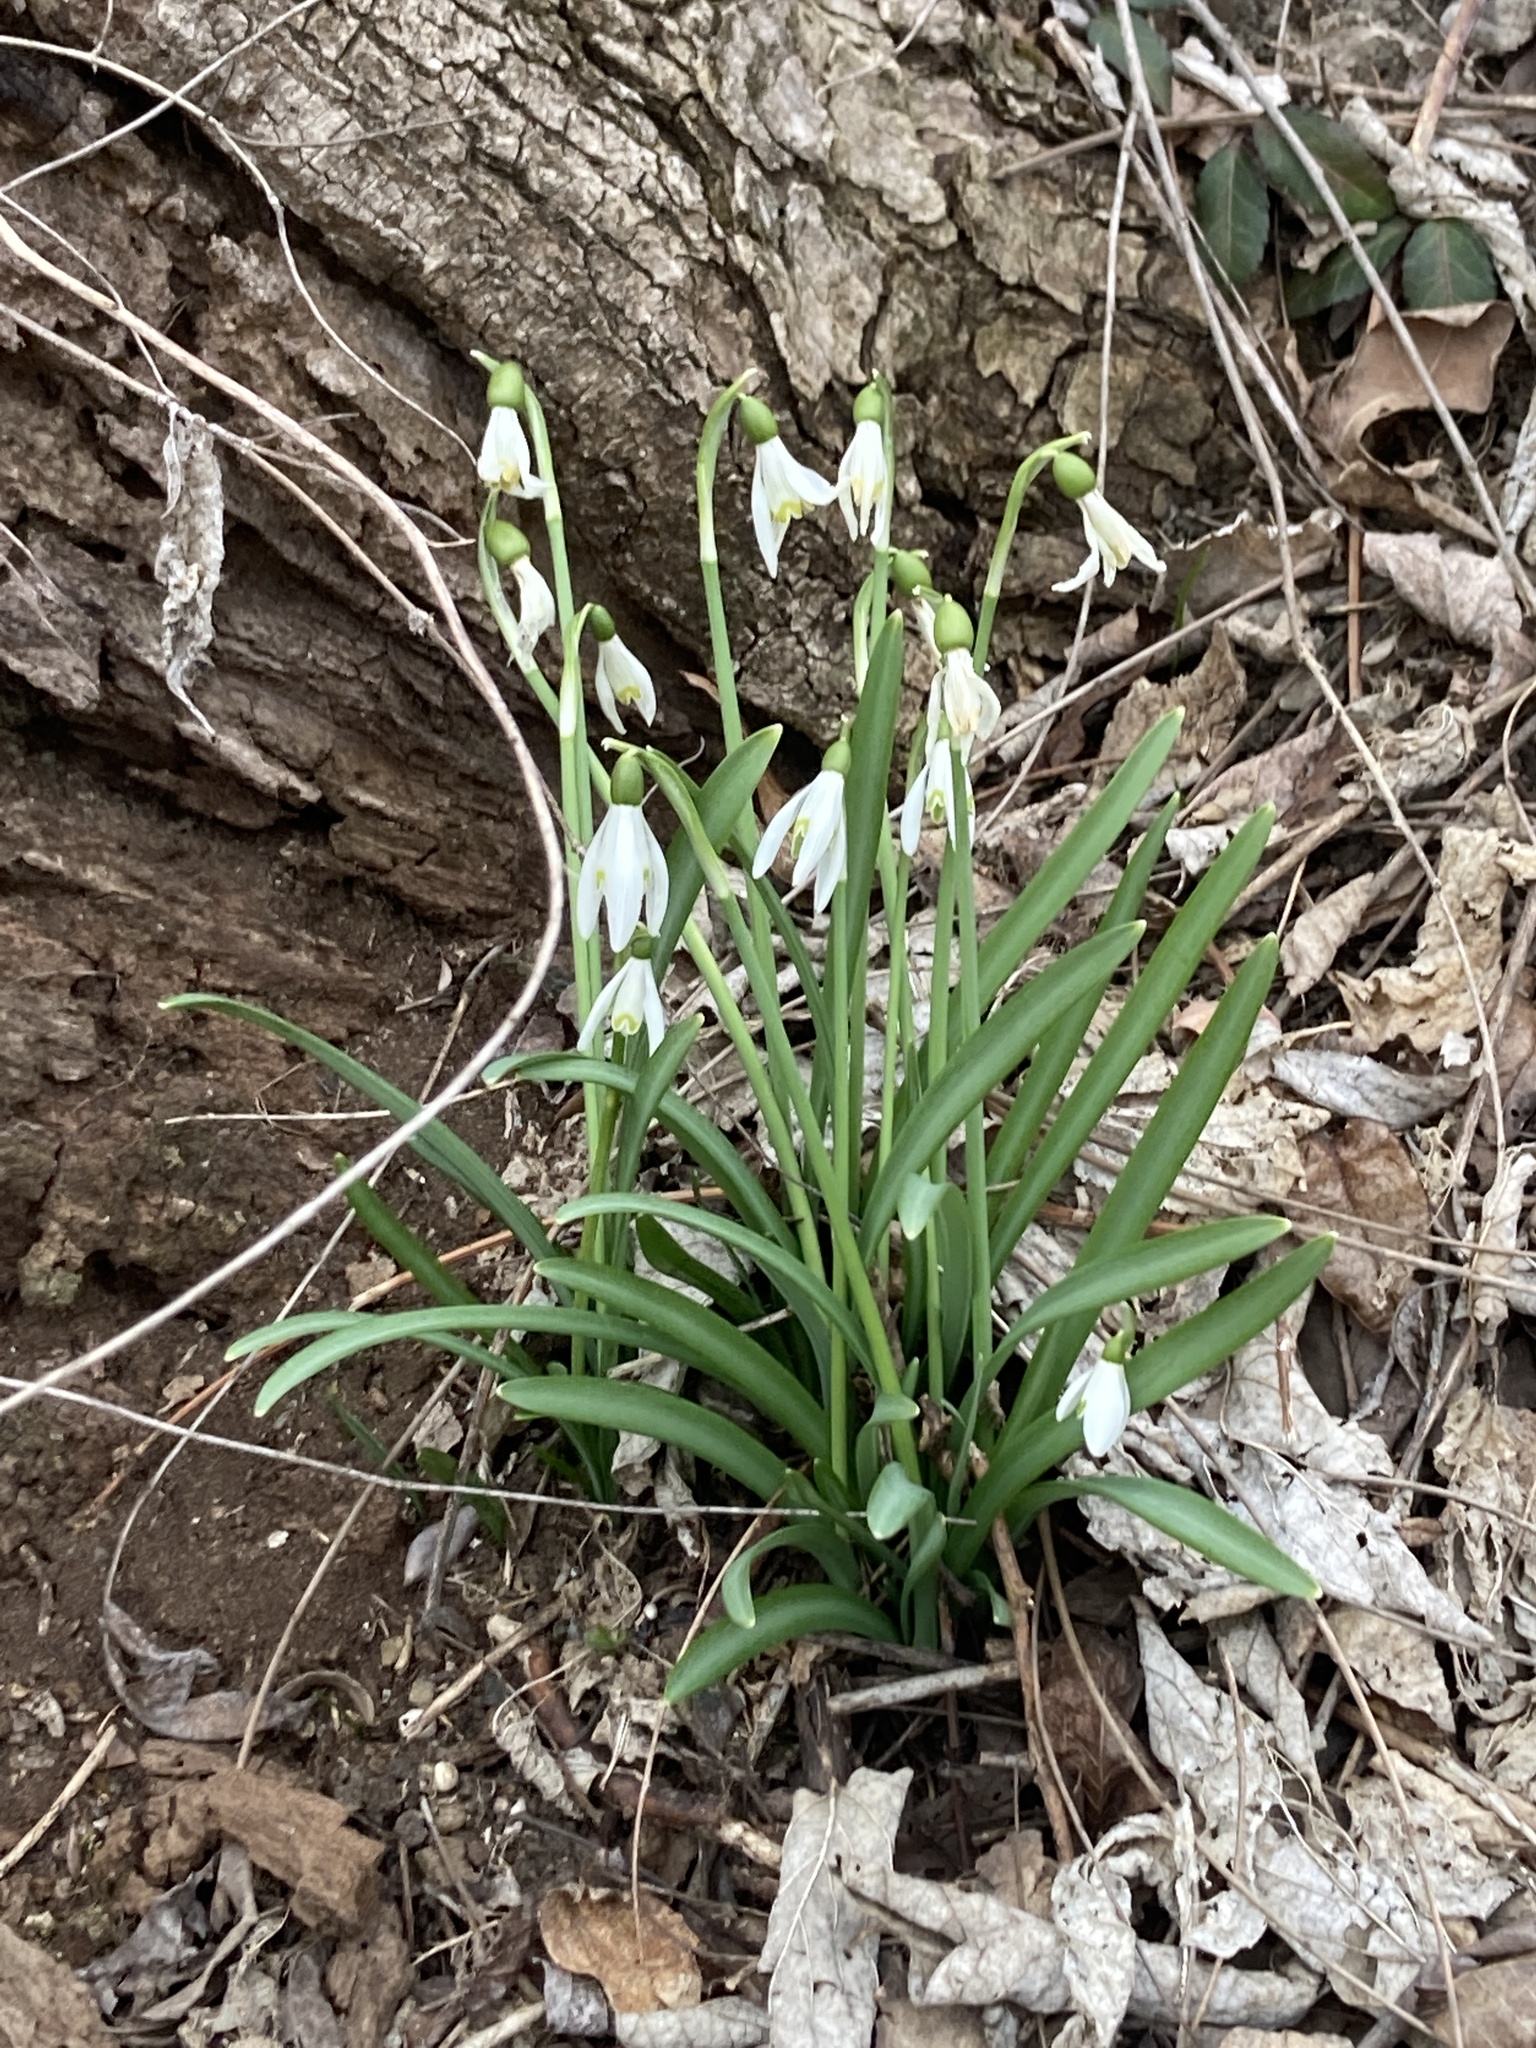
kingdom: Plantae
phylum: Tracheophyta
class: Liliopsida
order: Asparagales
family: Amaryllidaceae
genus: Galanthus
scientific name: Galanthus nivalis
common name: Snowdrop
